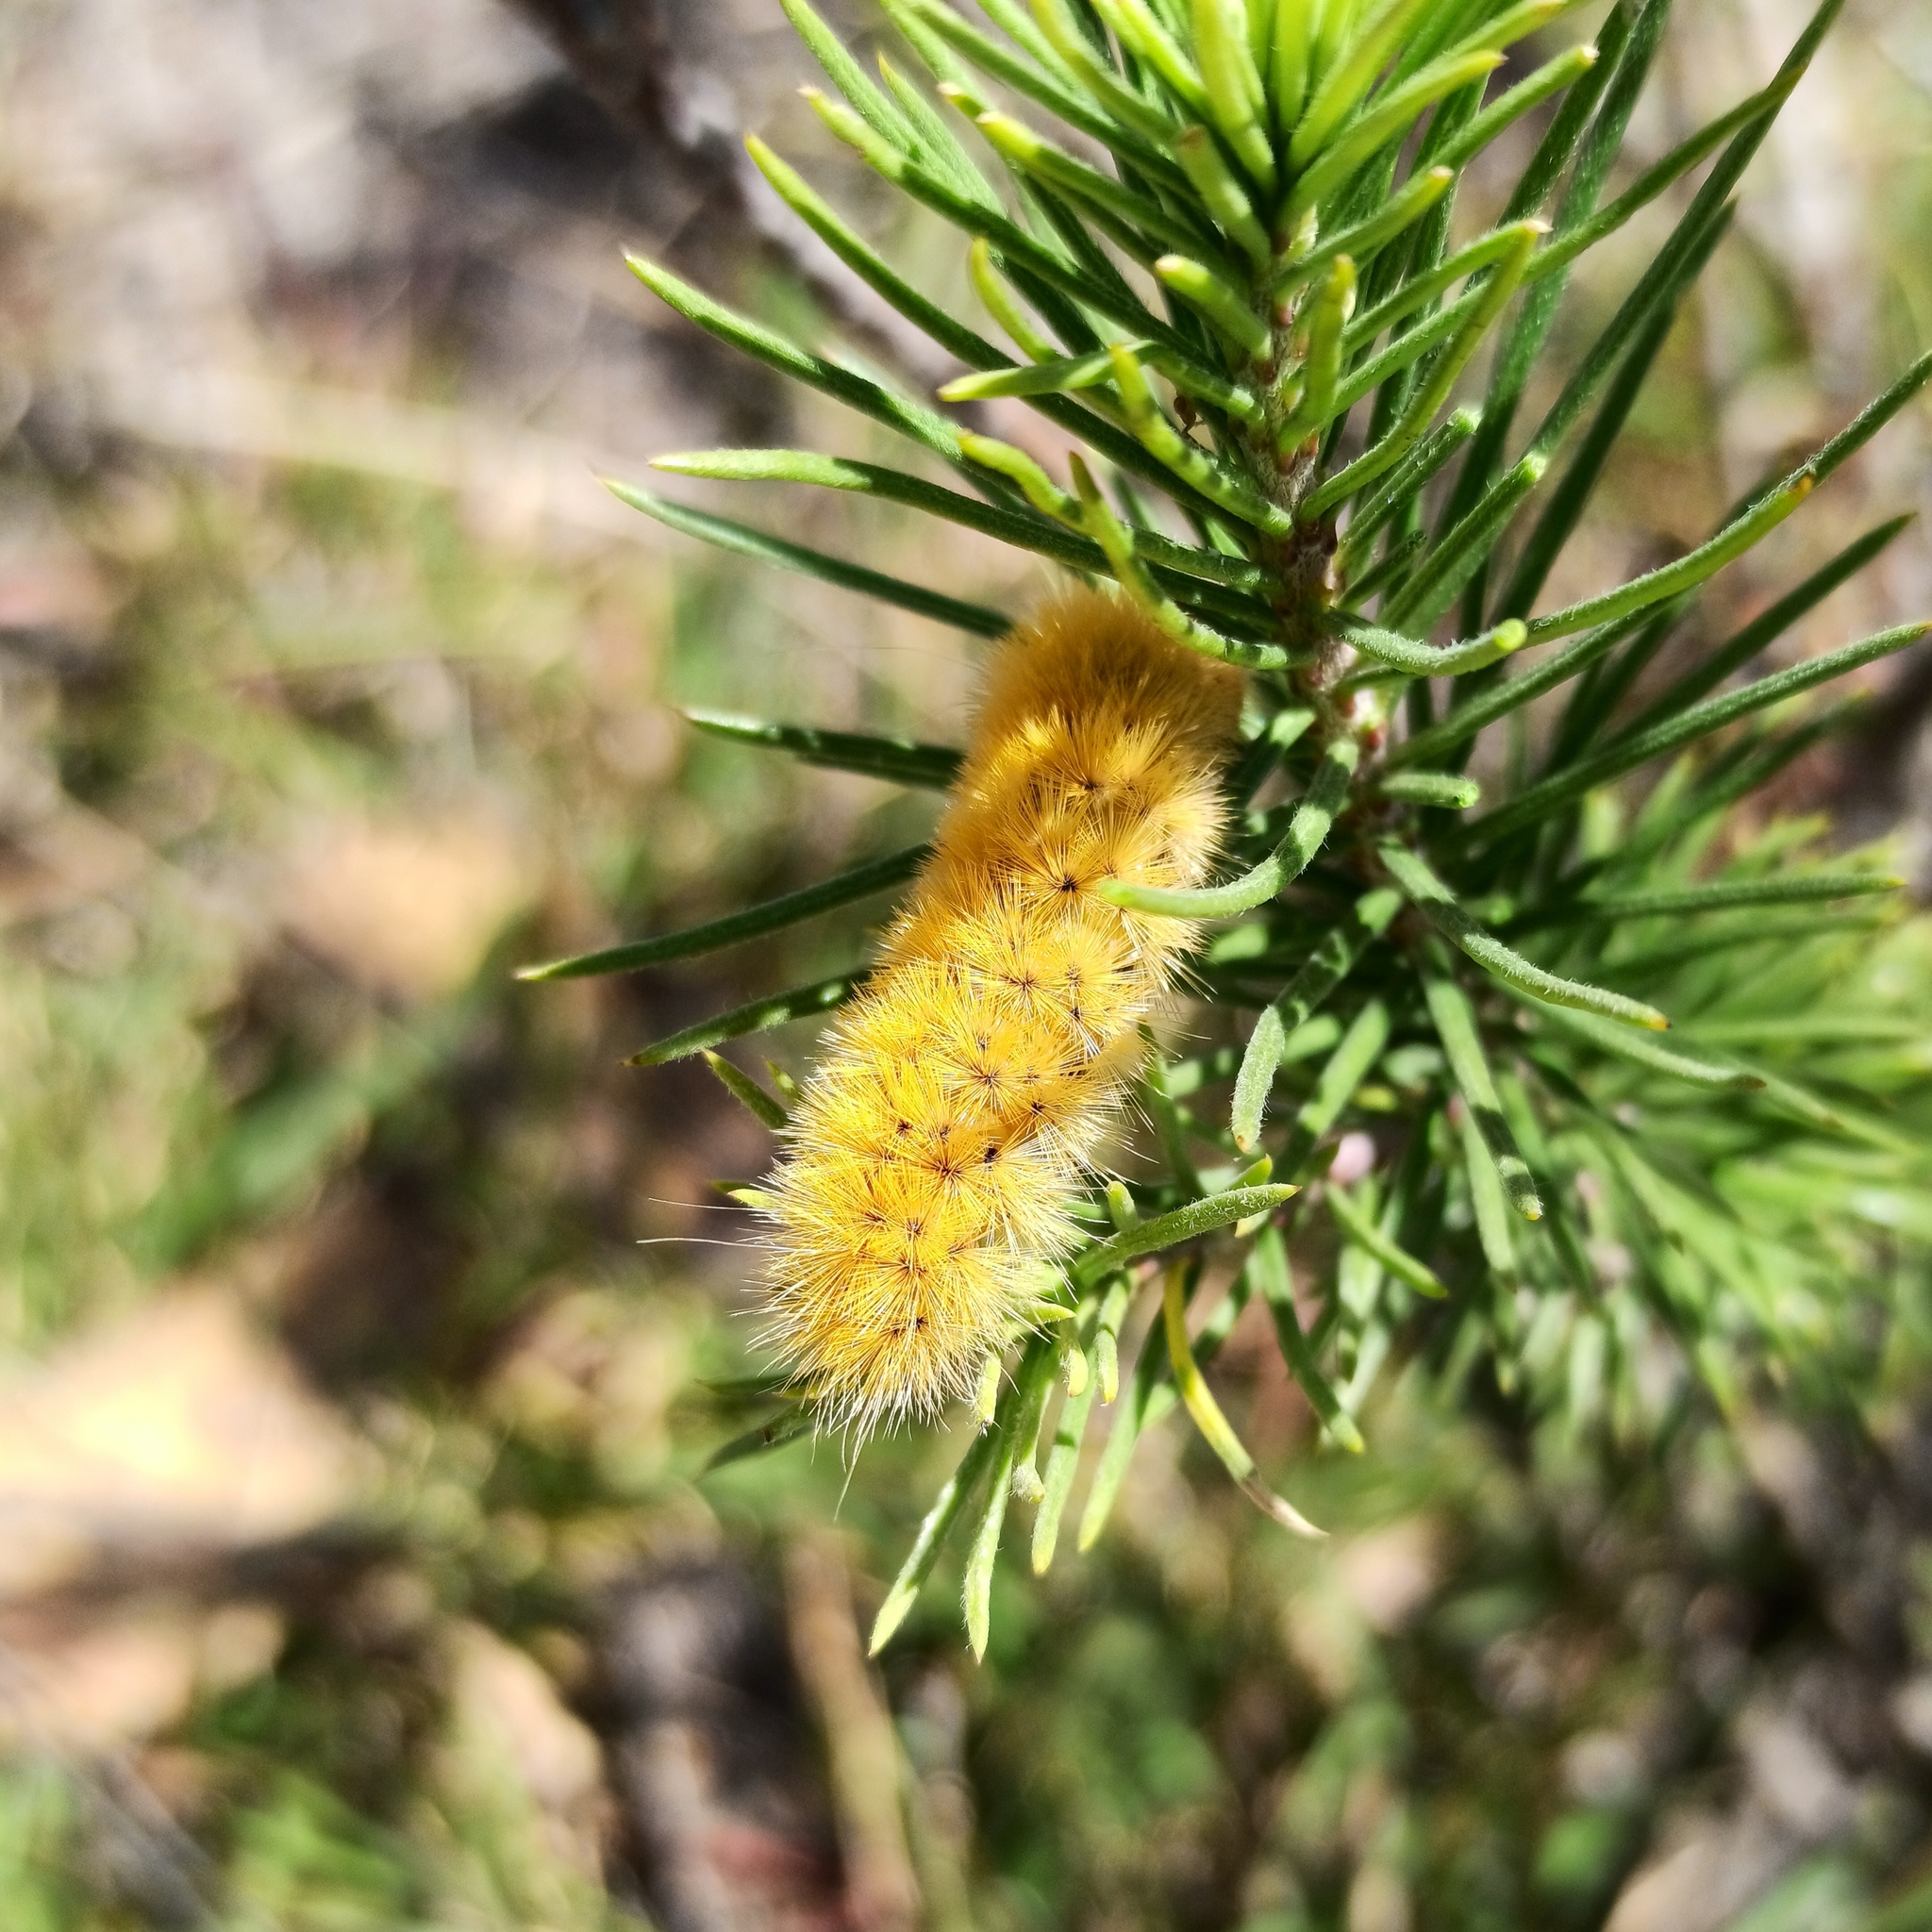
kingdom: Animalia
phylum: Arthropoda
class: Insecta
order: Lepidoptera
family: Erebidae
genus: Lerina
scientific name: Lerina incarnata
